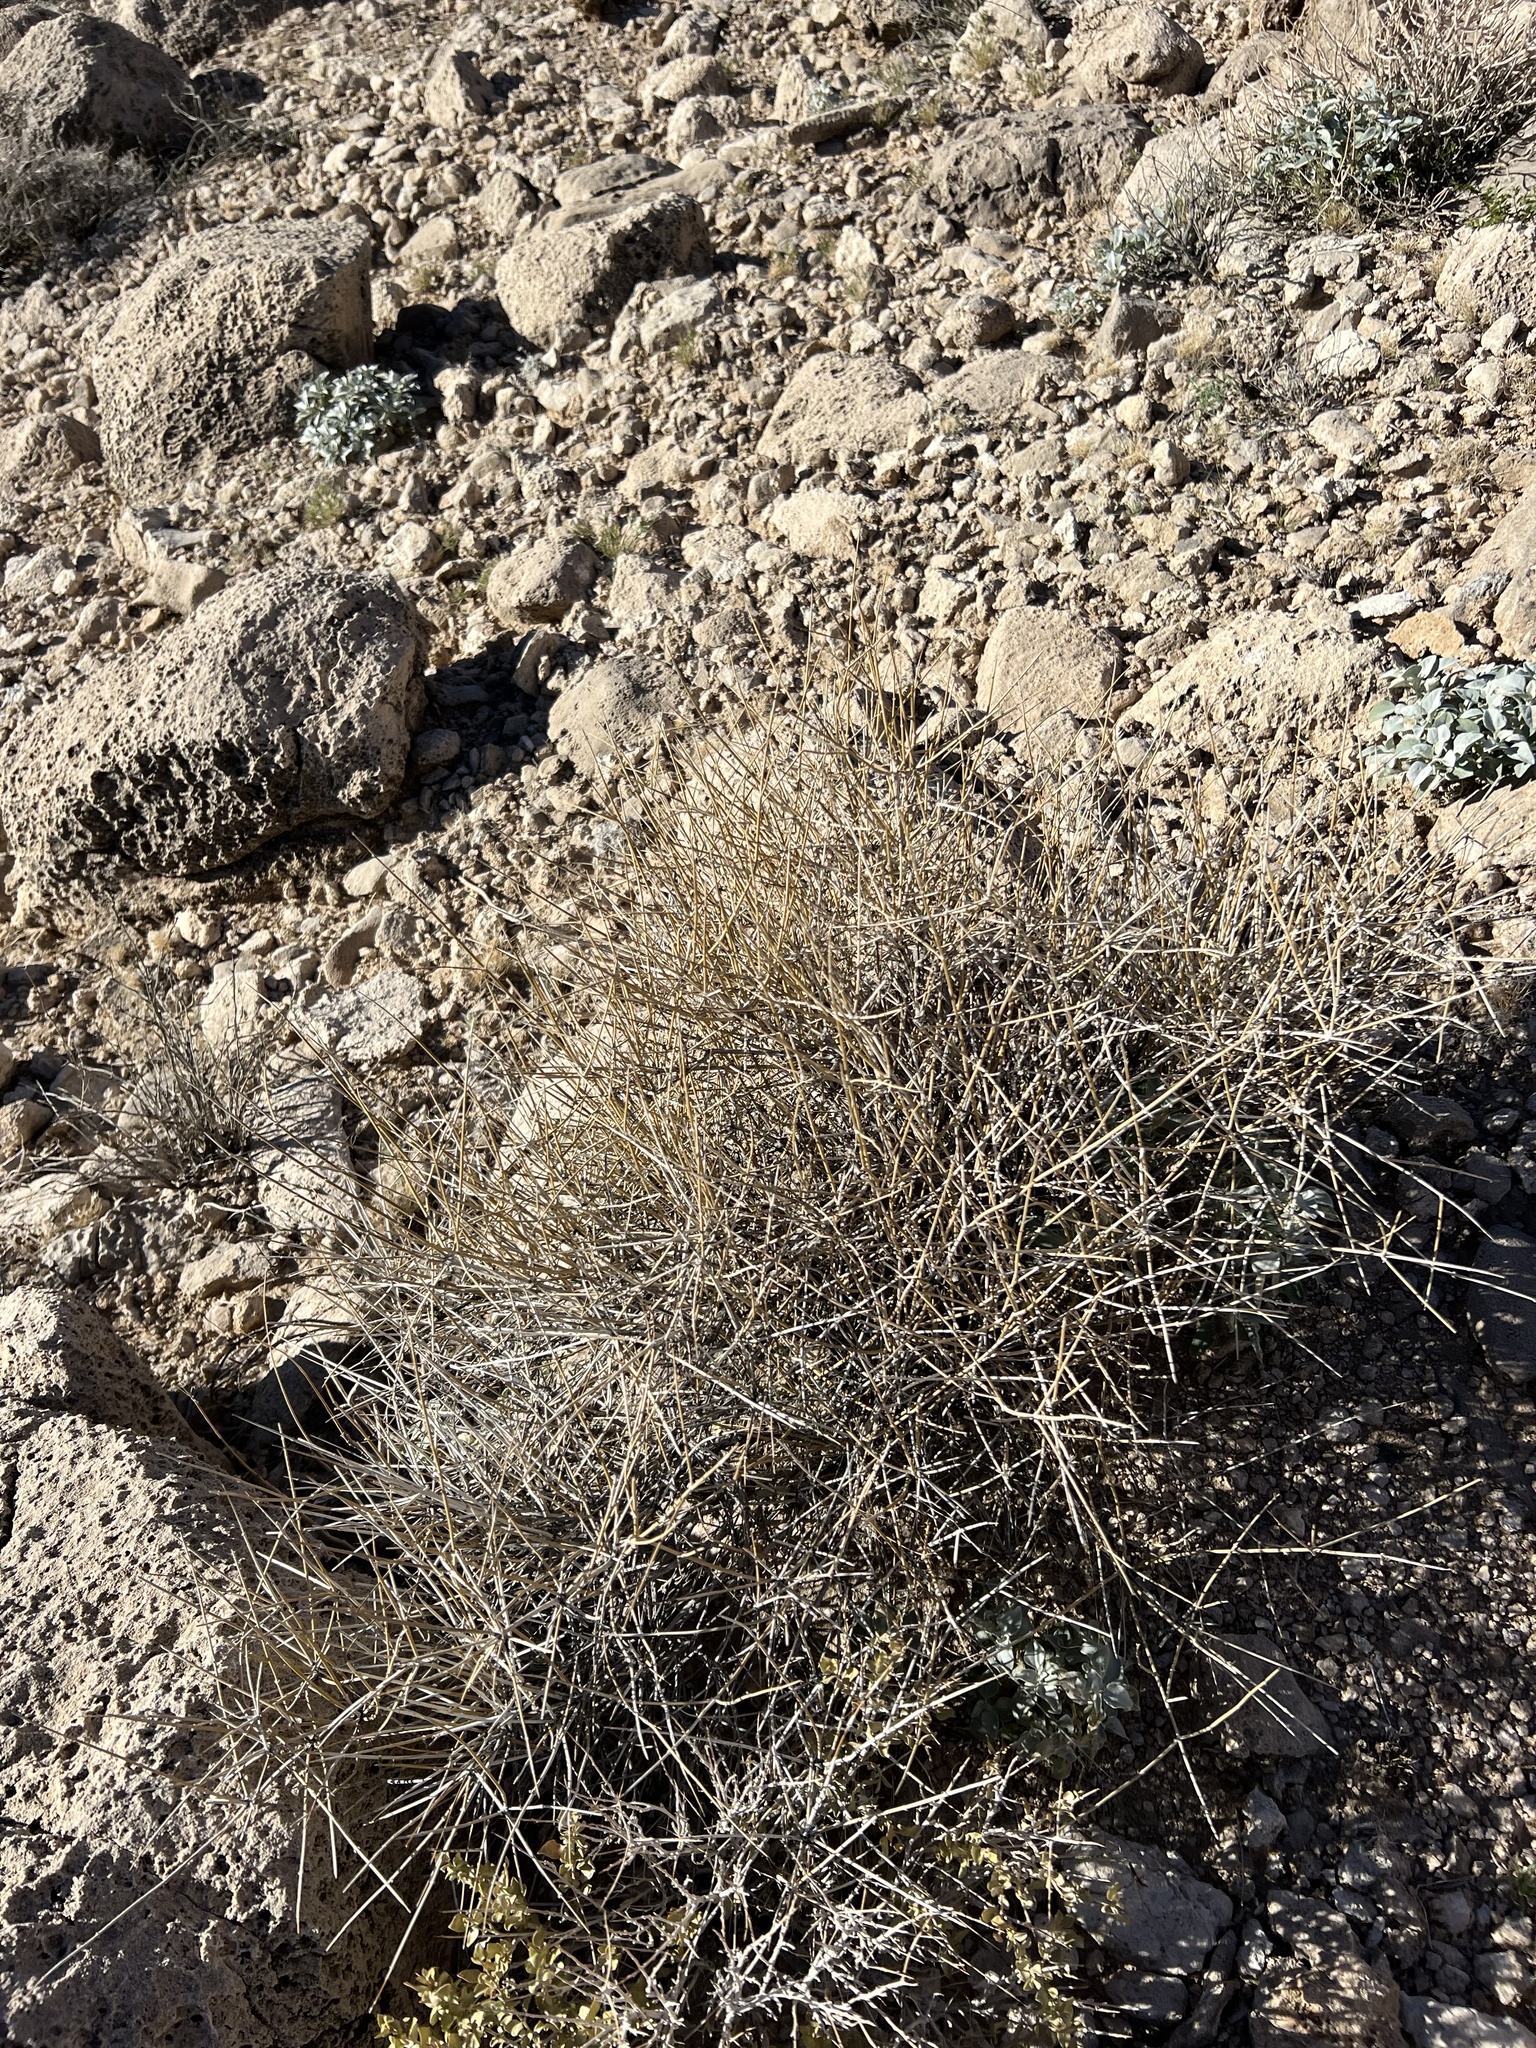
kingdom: Plantae
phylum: Tracheophyta
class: Gnetopsida
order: Ephedrales
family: Ephedraceae
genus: Ephedra
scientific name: Ephedra nevadensis
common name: Gray ephedra
